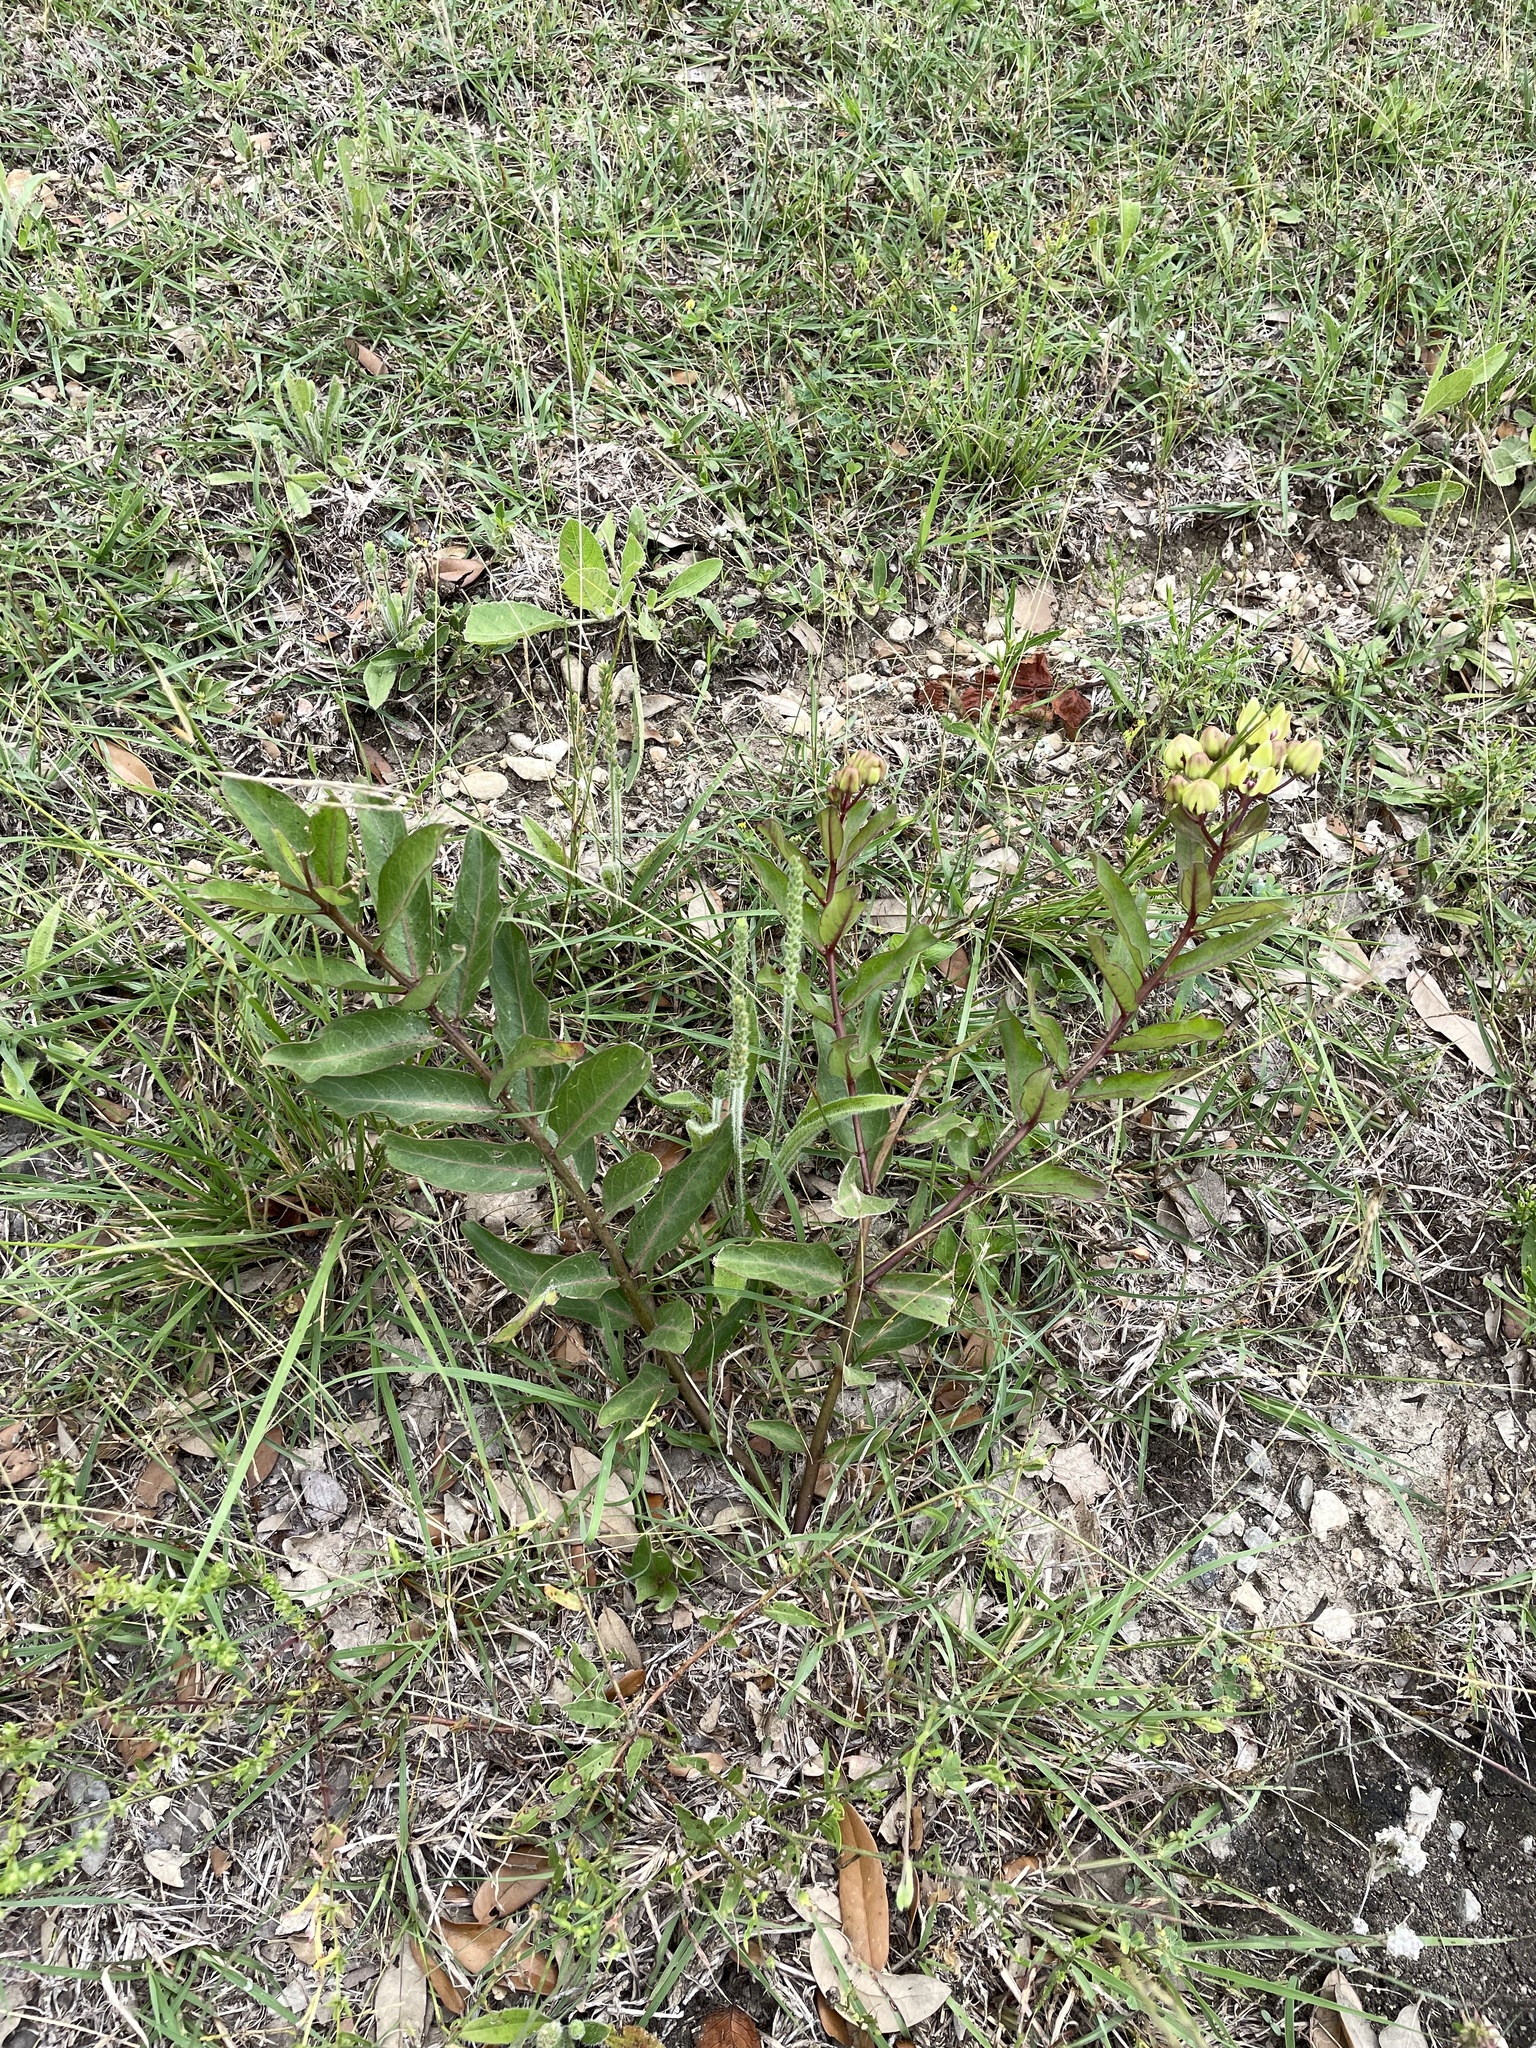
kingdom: Plantae
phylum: Tracheophyta
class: Magnoliopsida
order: Gentianales
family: Apocynaceae
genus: Asclepias
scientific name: Asclepias viridis
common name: Antelope-horns
